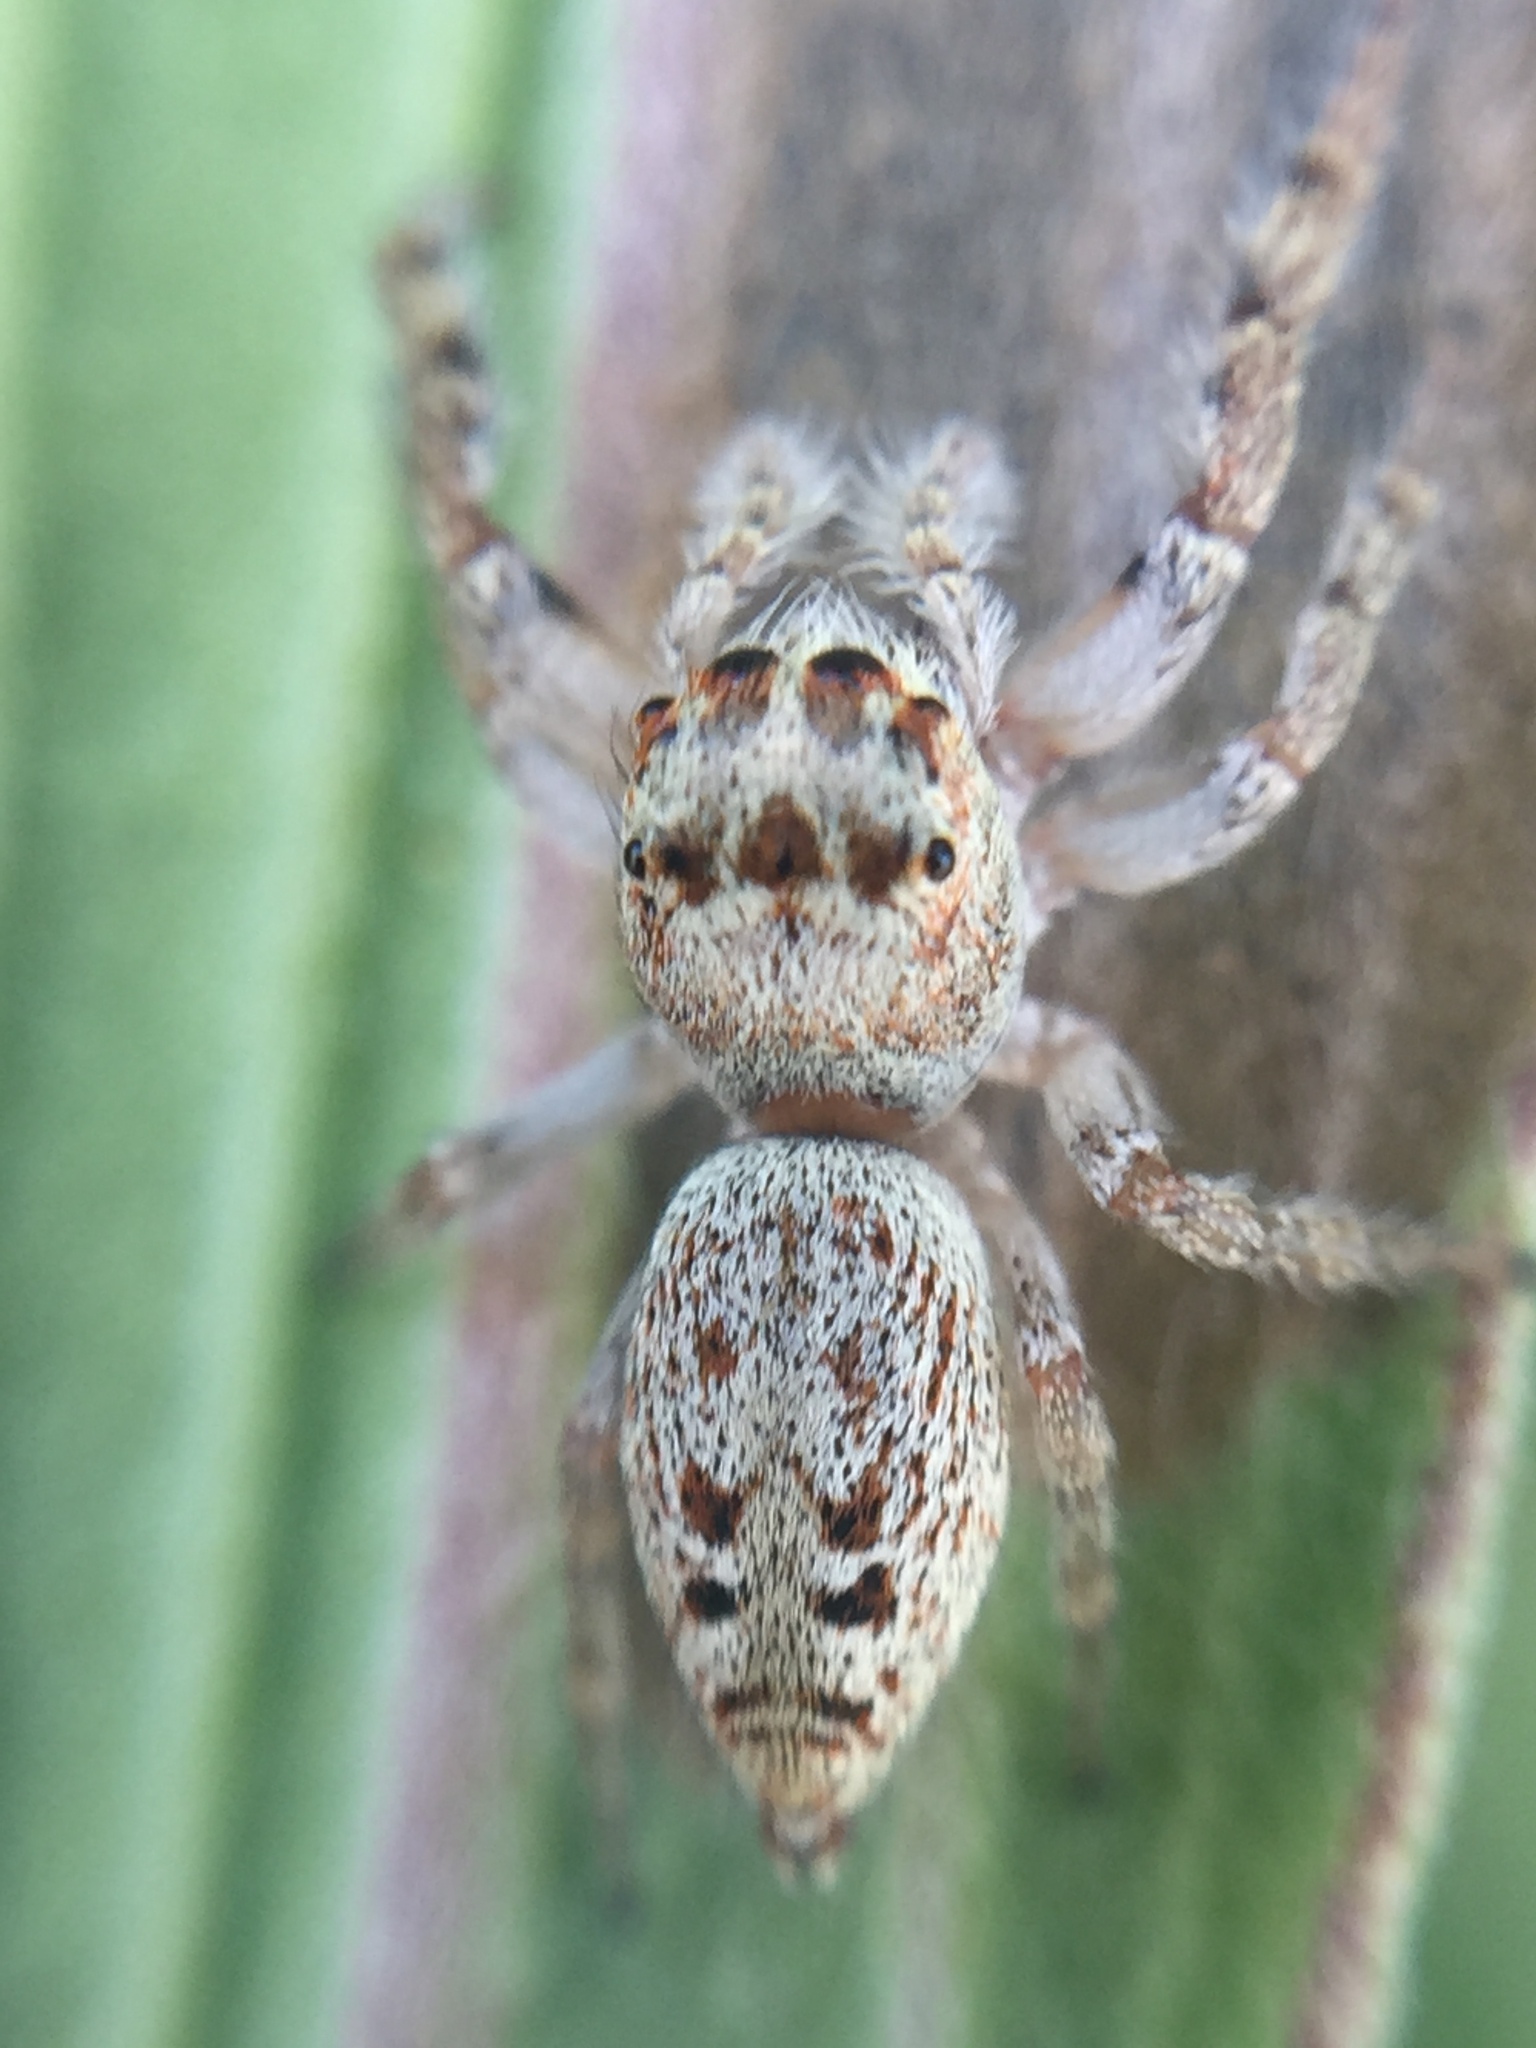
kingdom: Animalia
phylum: Arthropoda
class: Arachnida
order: Araneae
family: Salticidae
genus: Opisthoncus
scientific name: Opisthoncus polyphemus
